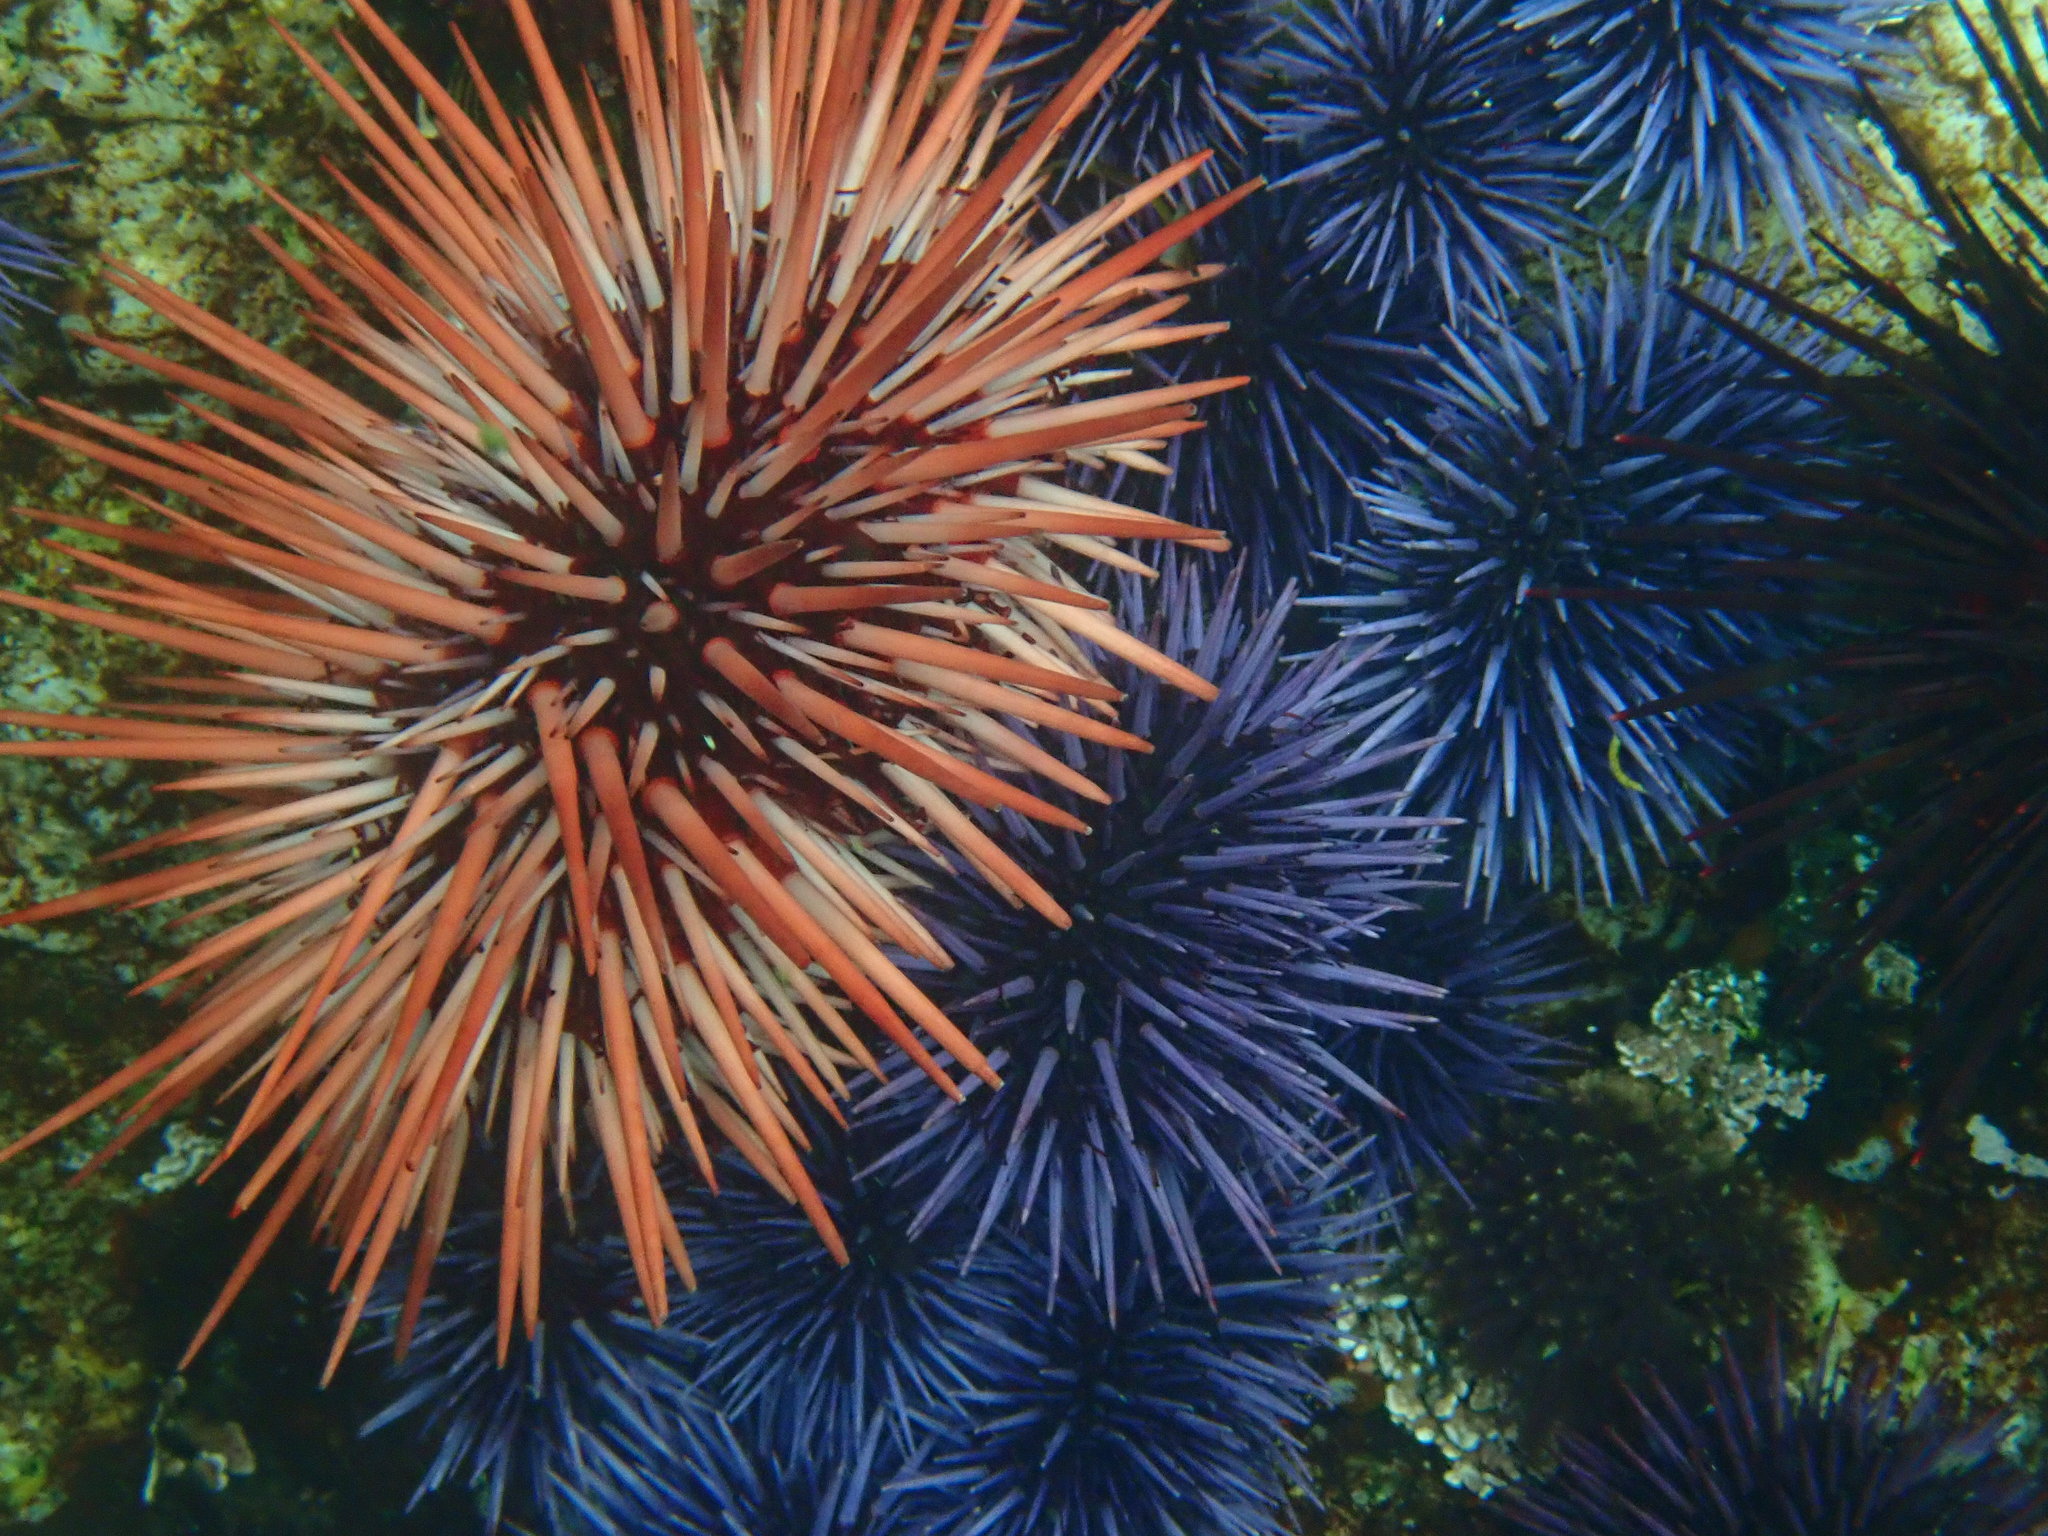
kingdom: Animalia
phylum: Echinodermata
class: Echinoidea
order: Camarodonta
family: Strongylocentrotidae
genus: Mesocentrotus
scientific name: Mesocentrotus franciscanus
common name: Red sea urchin
